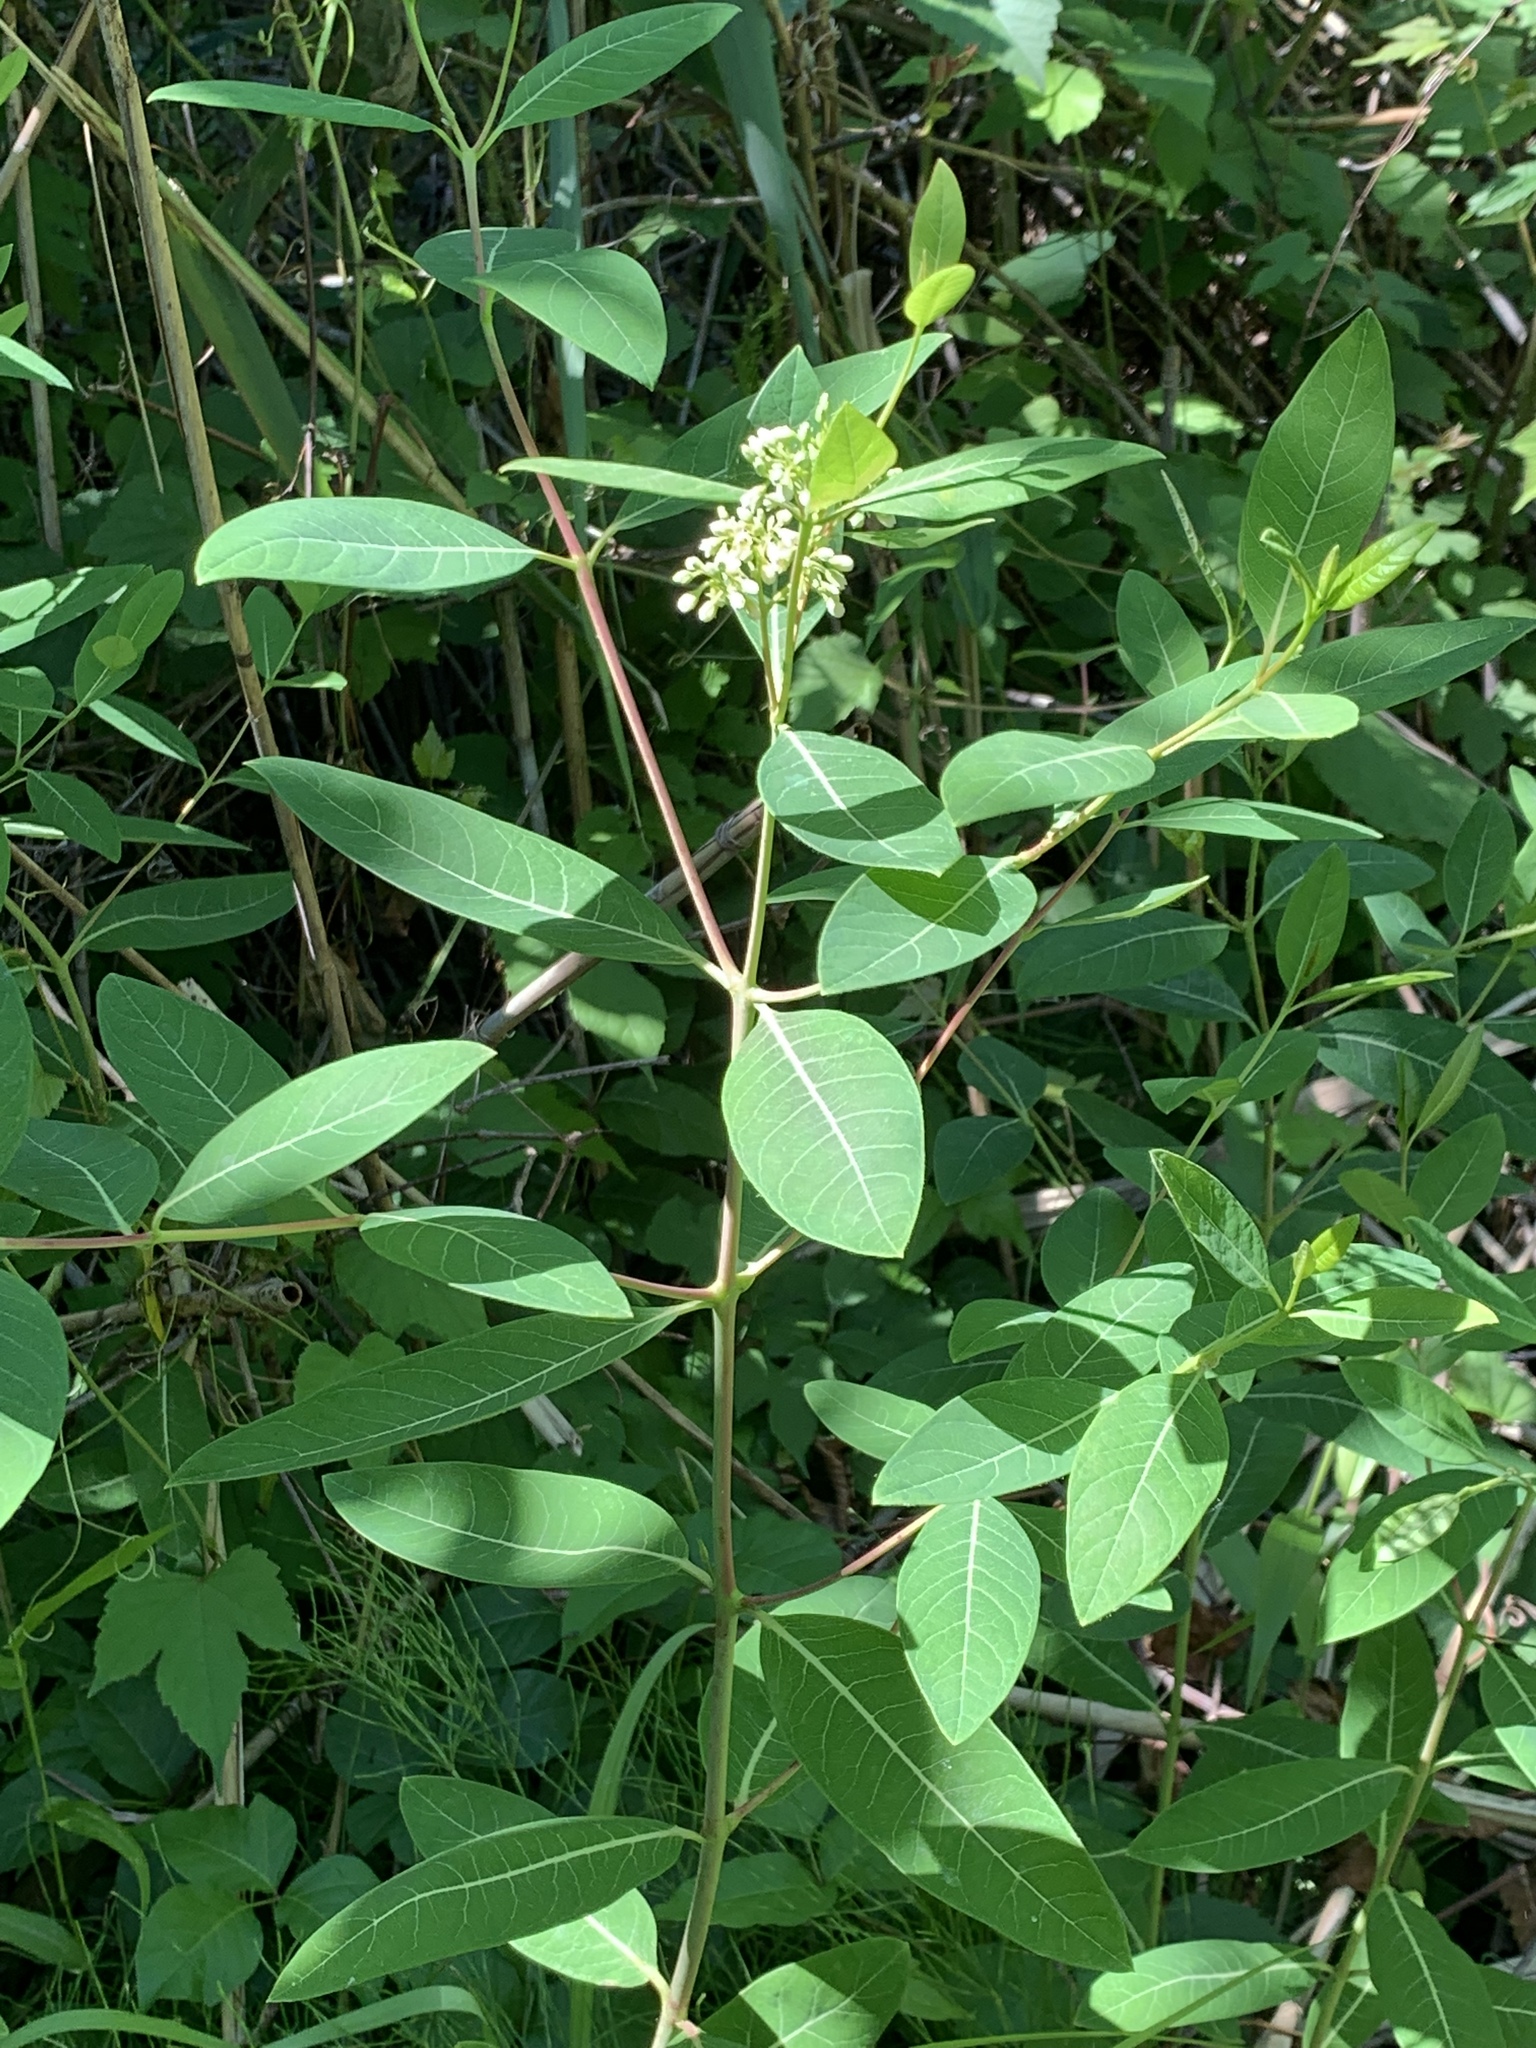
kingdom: Plantae
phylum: Tracheophyta
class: Magnoliopsida
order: Gentianales
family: Apocynaceae
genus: Apocynum
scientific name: Apocynum cannabinum
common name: Hemp dogbane
